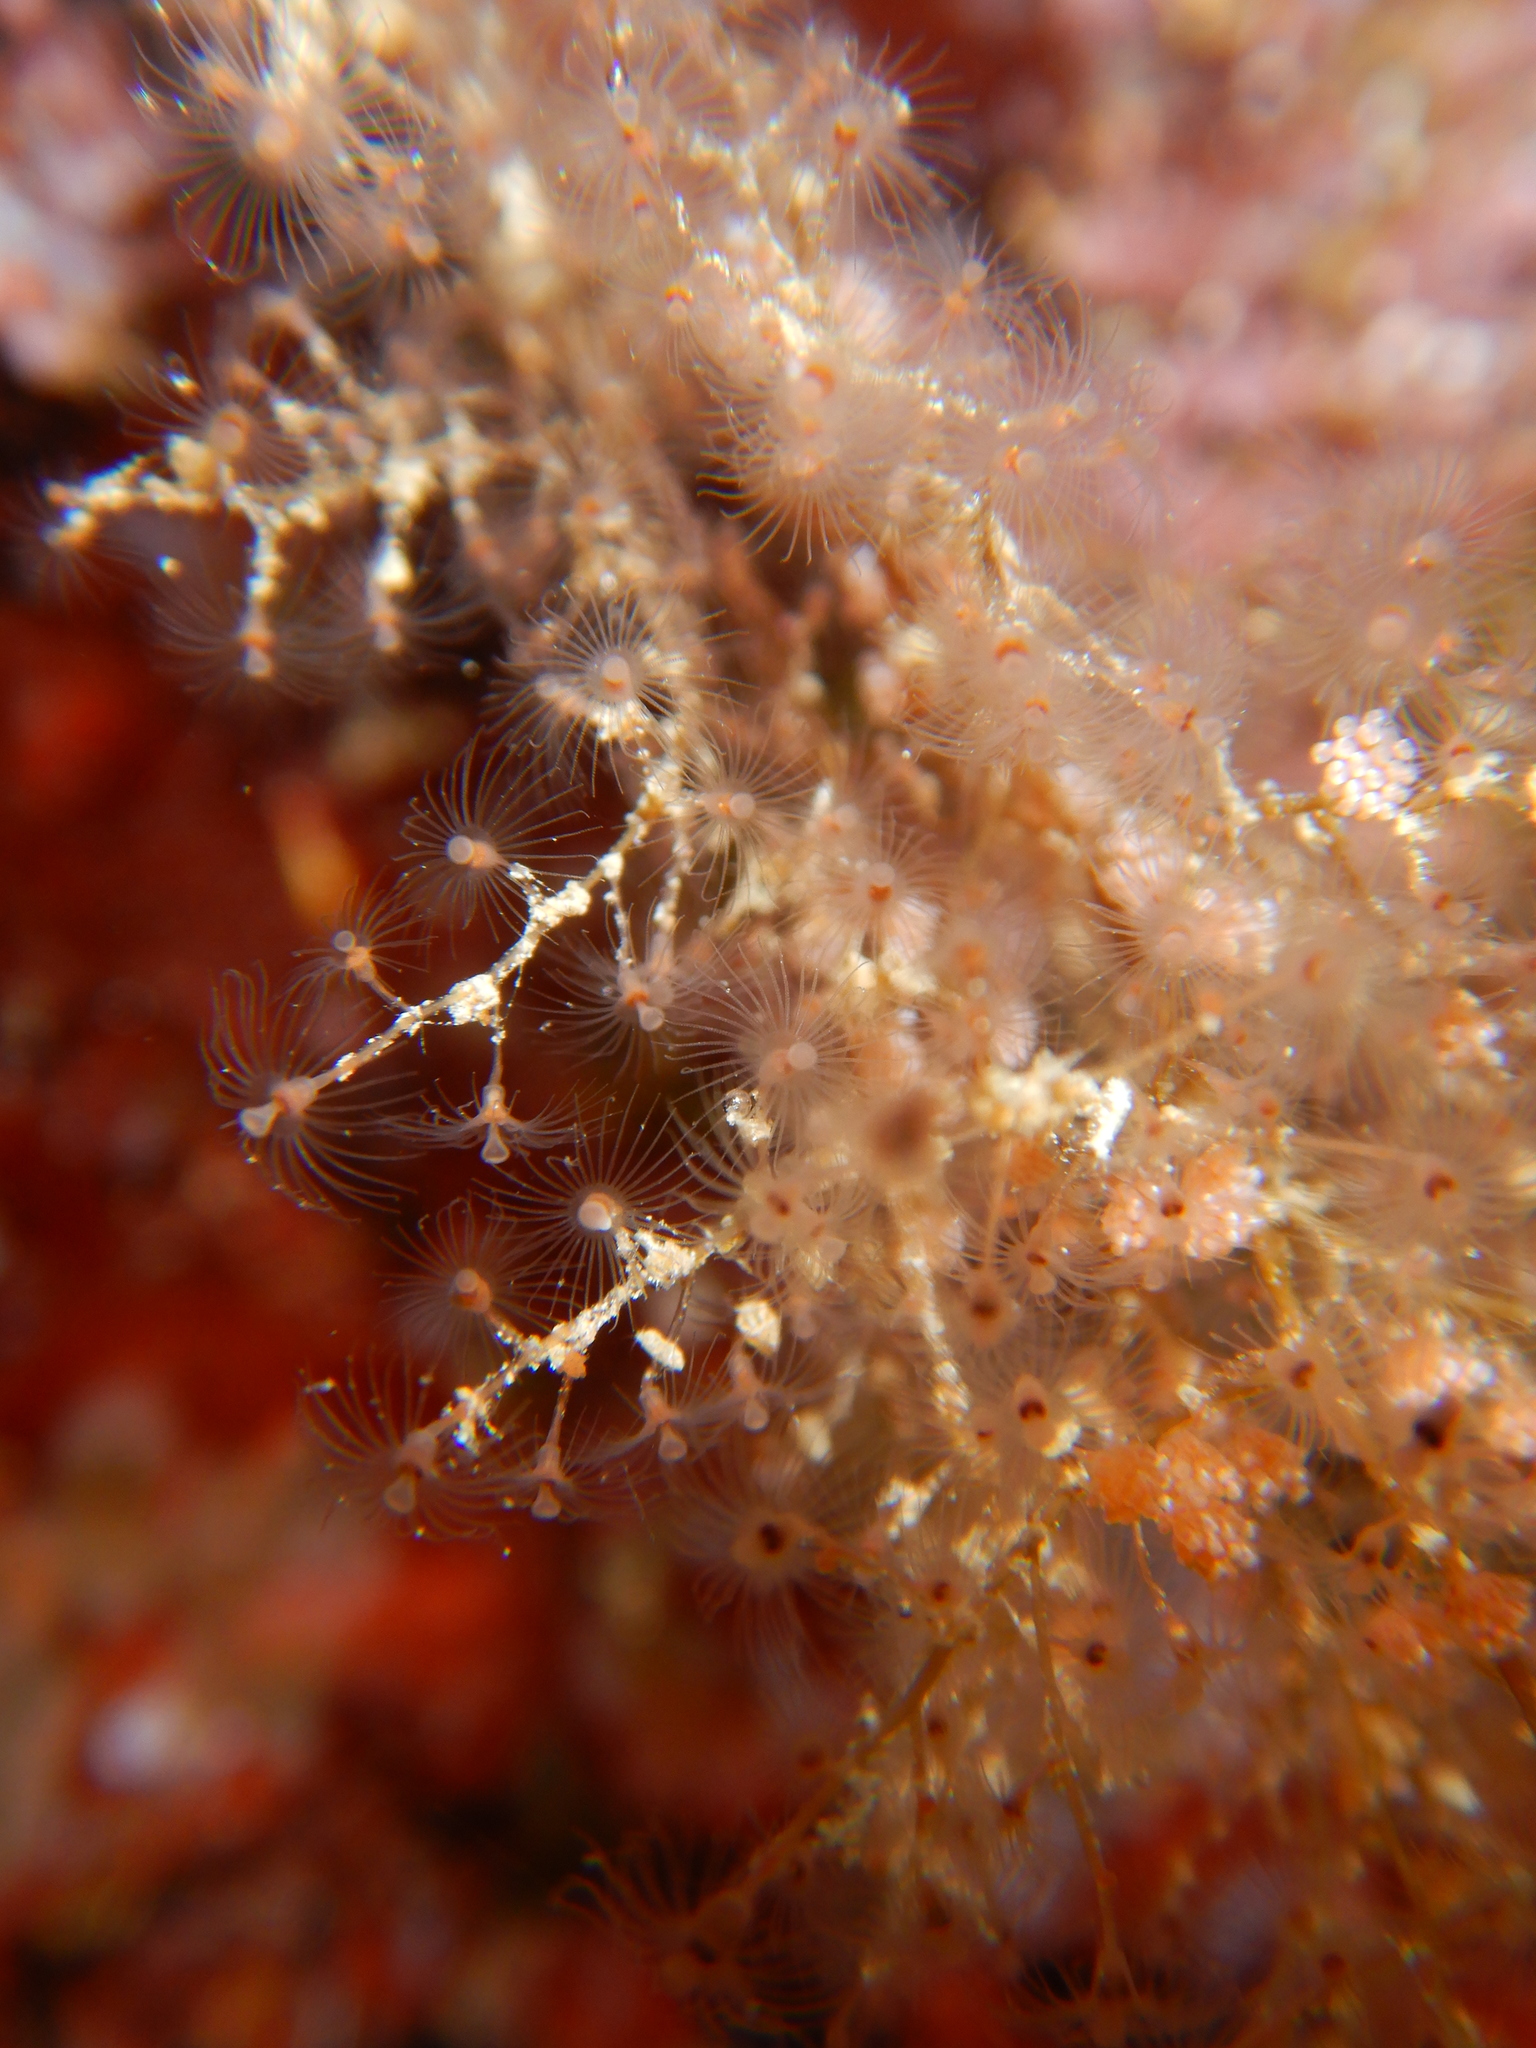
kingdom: Animalia
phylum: Cnidaria
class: Hydrozoa
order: Anthoathecata
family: Eudendriidae
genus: Eudendrium
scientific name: Eudendrium racemosum
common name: Botryoid stickhydroid
